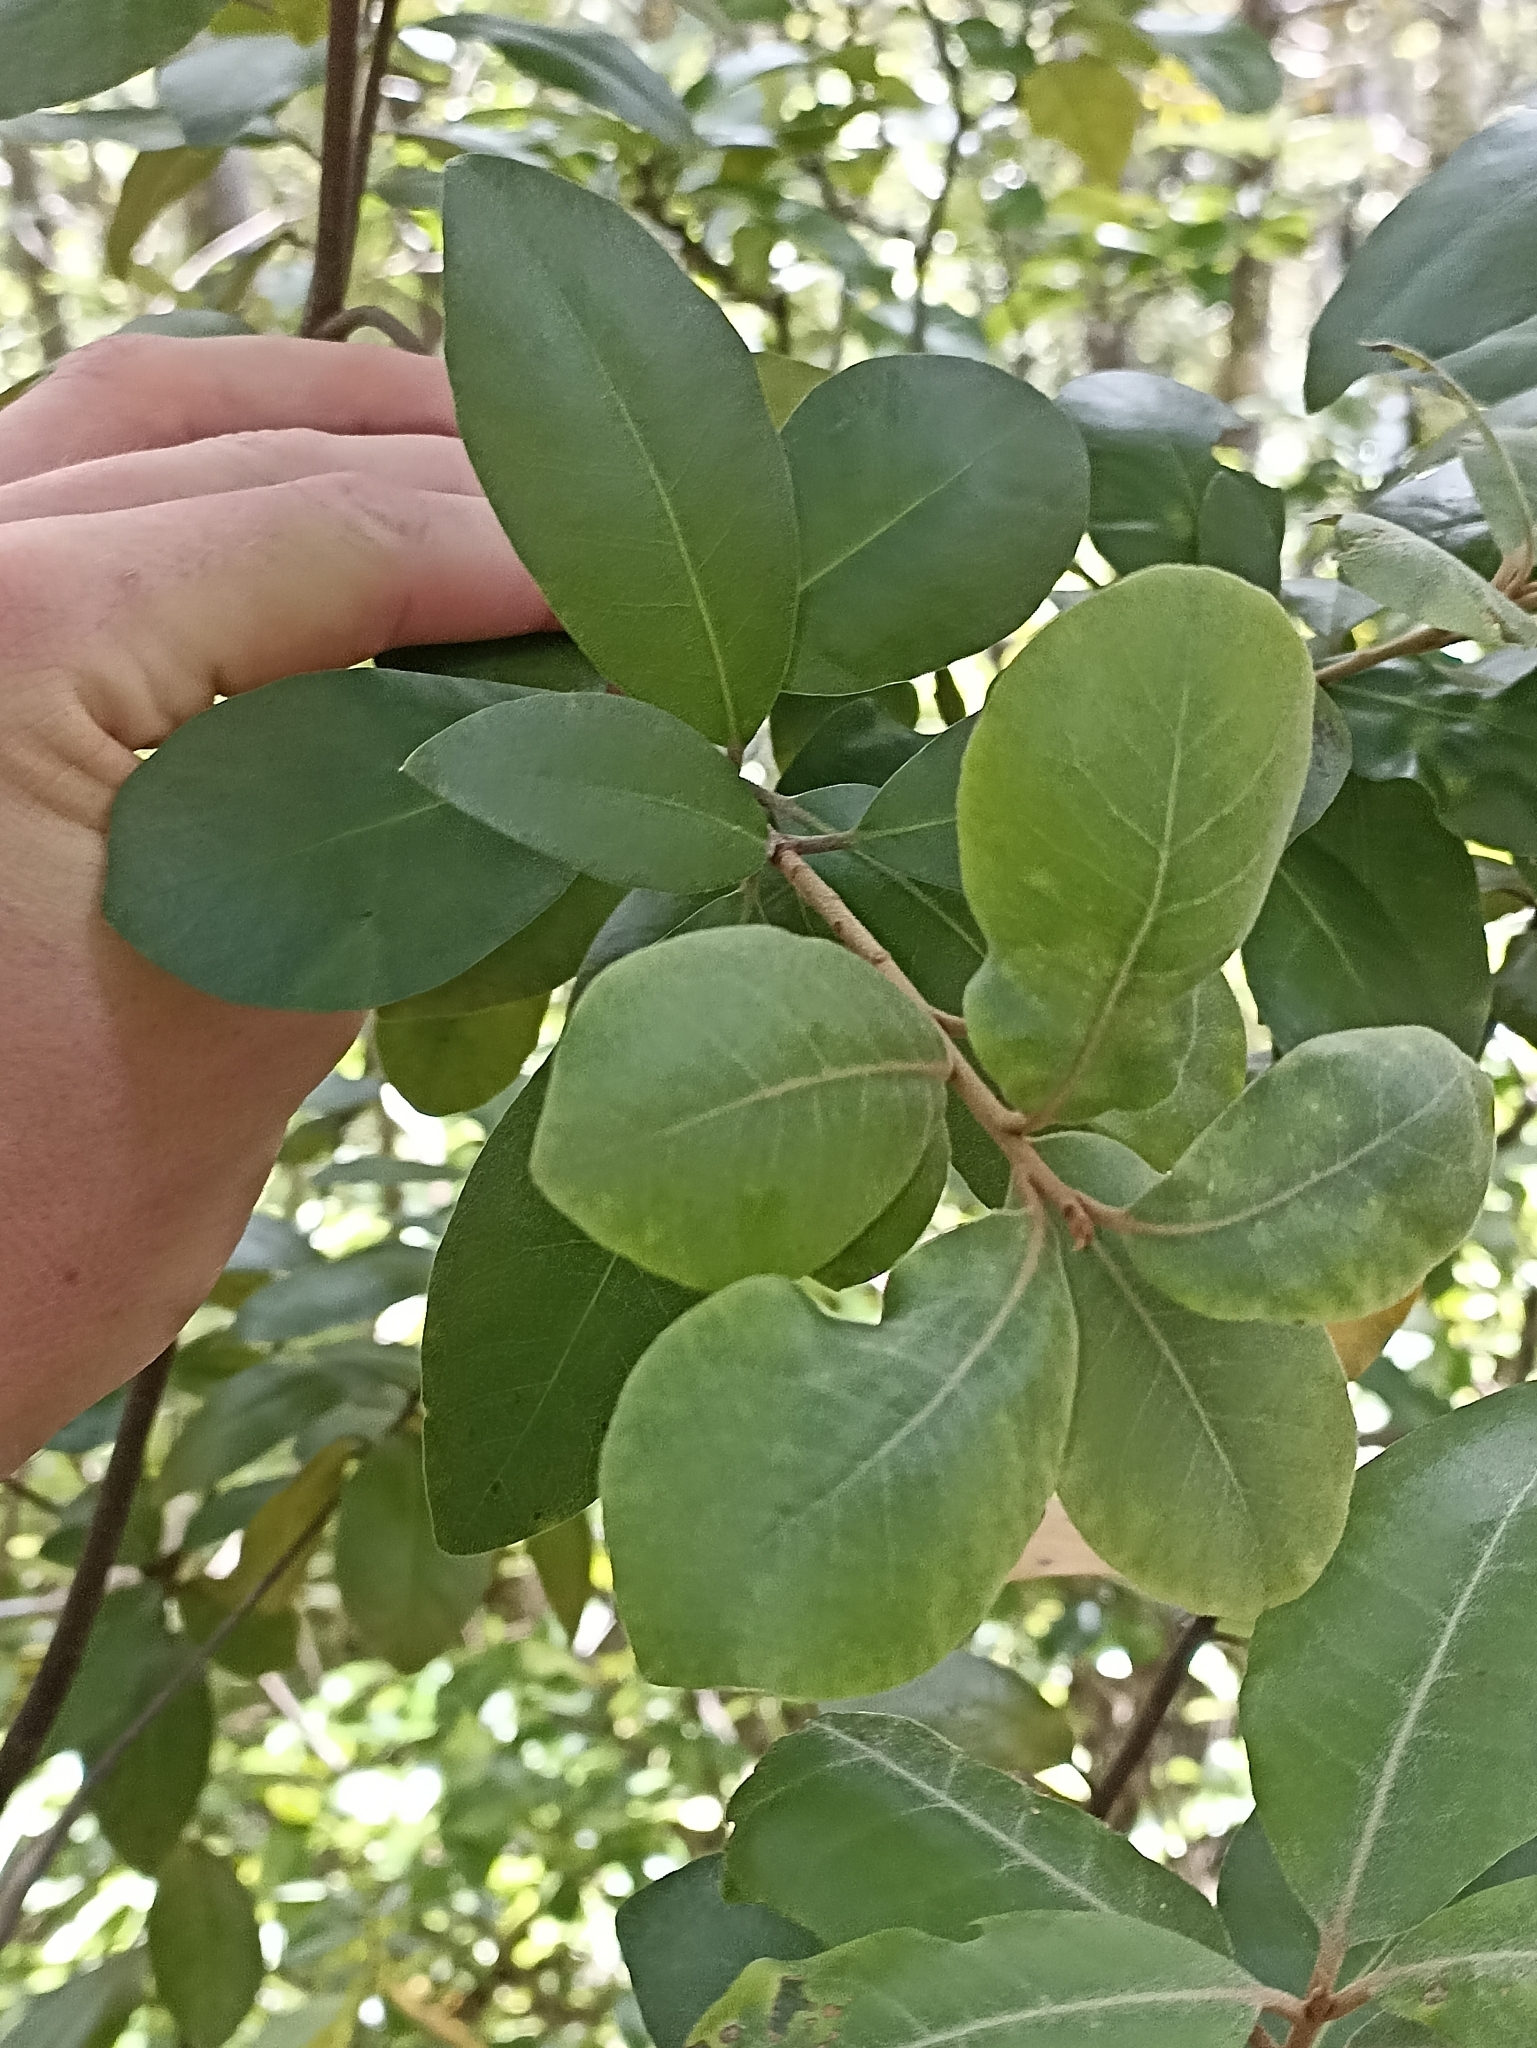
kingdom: Plantae
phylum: Tracheophyta
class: Magnoliopsida
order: Apiales
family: Pittosporaceae
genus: Pittosporum
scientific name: Pittosporum ellipticum
